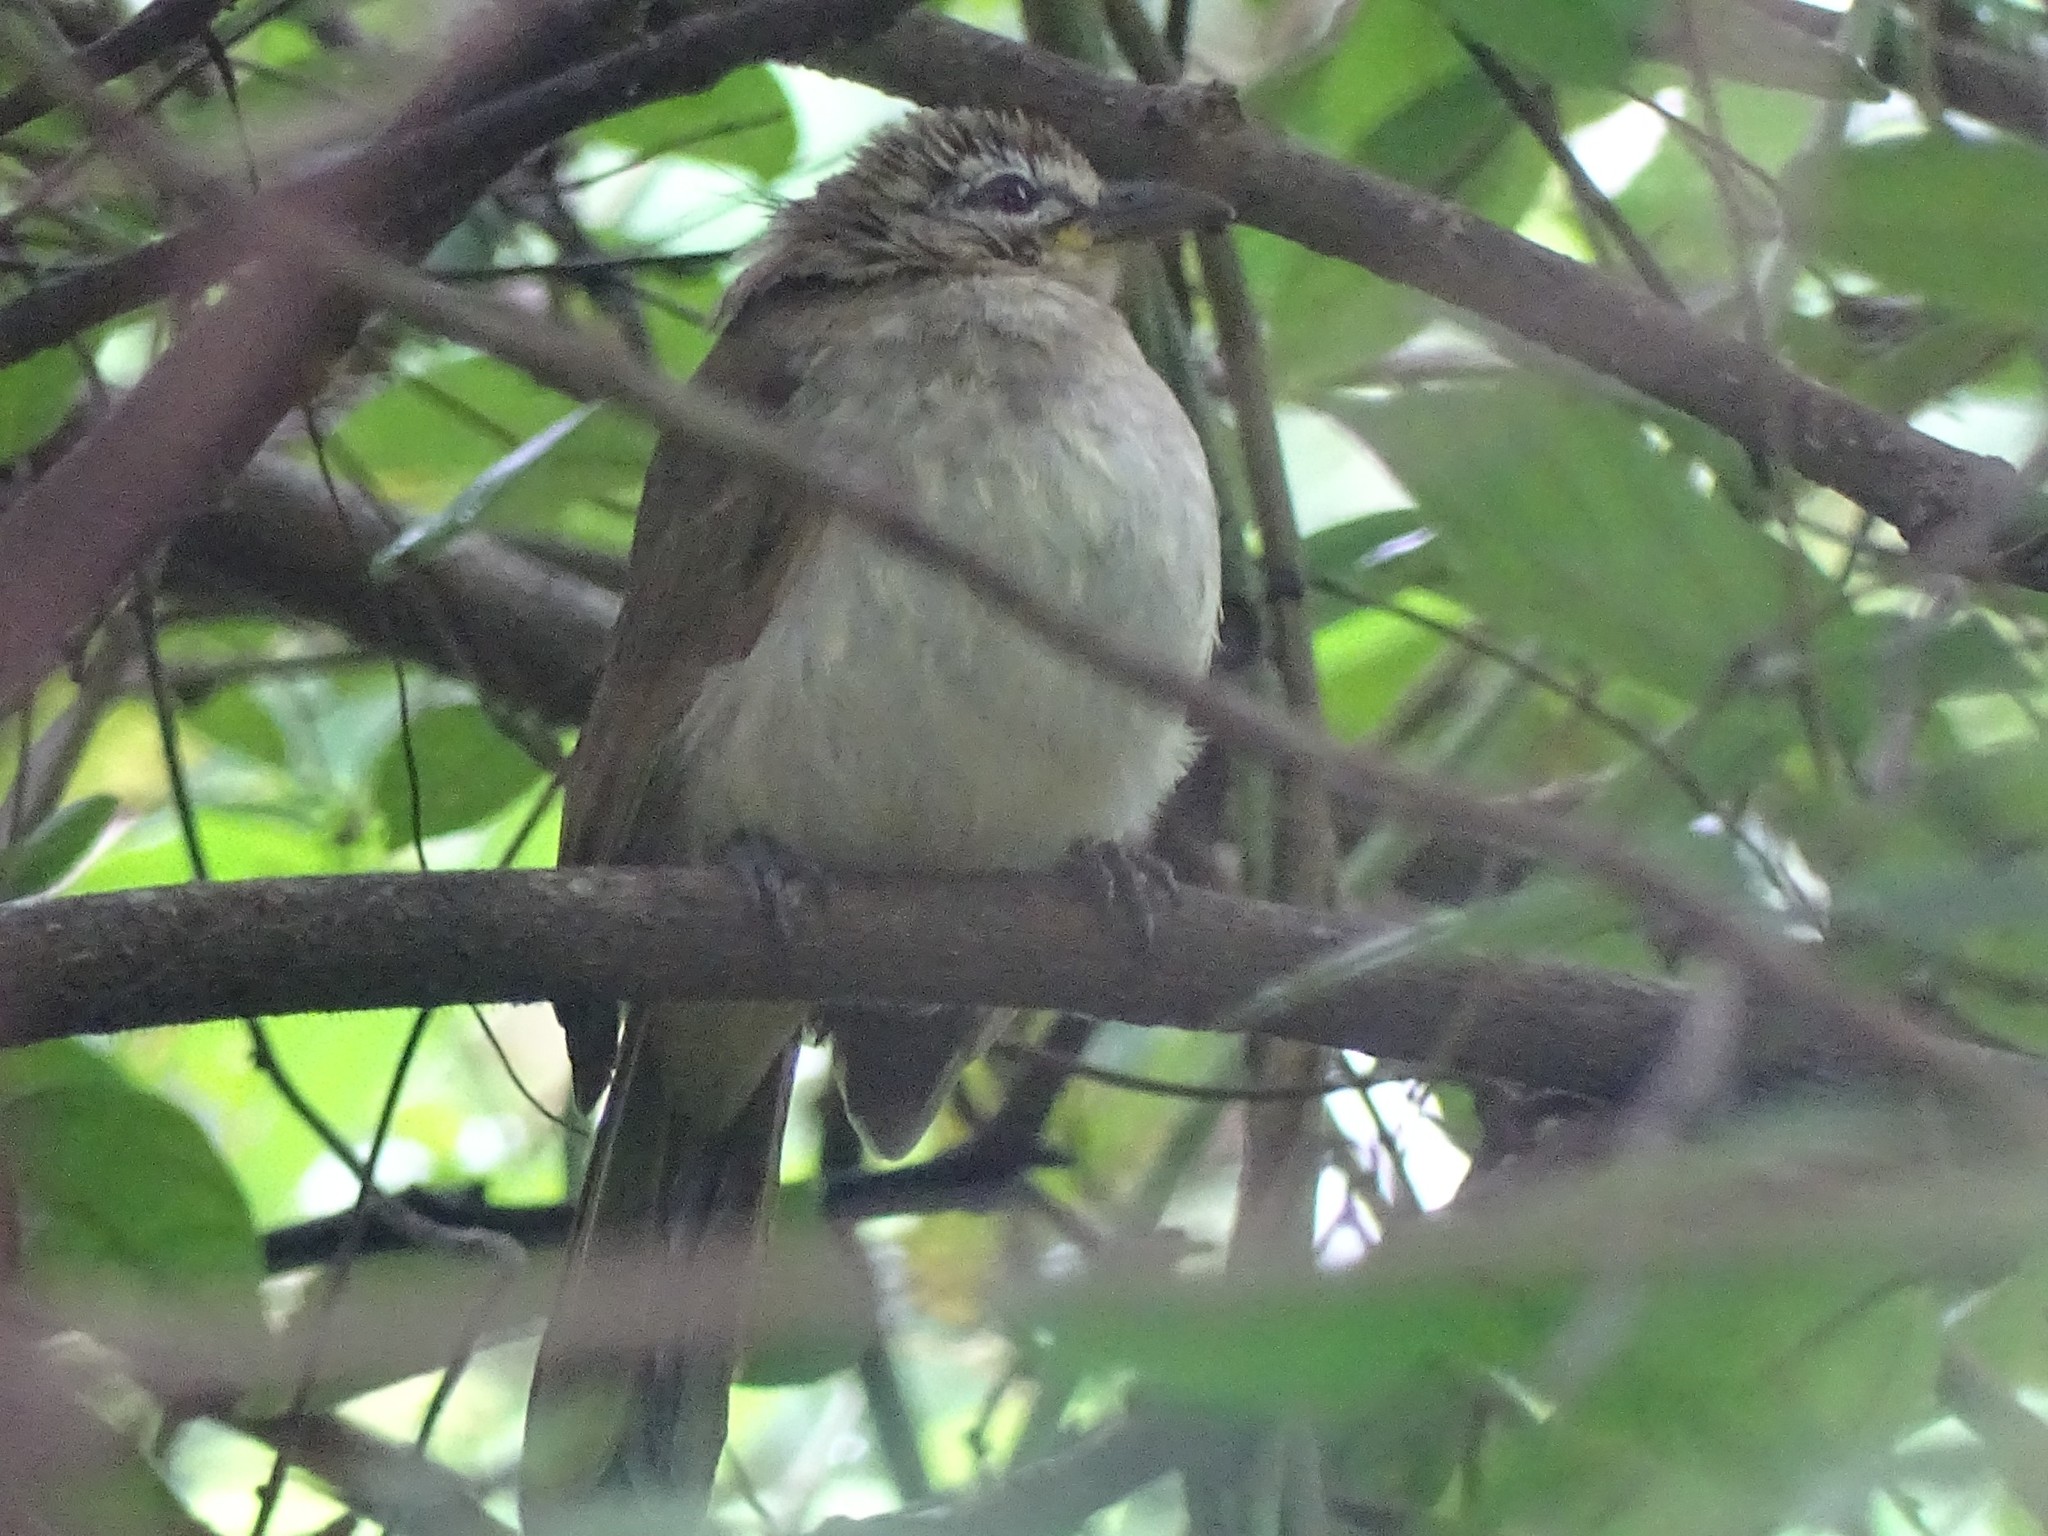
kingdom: Animalia
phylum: Chordata
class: Aves
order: Passeriformes
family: Pycnonotidae
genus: Pycnonotus
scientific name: Pycnonotus luteolus
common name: White-browed bulbul
